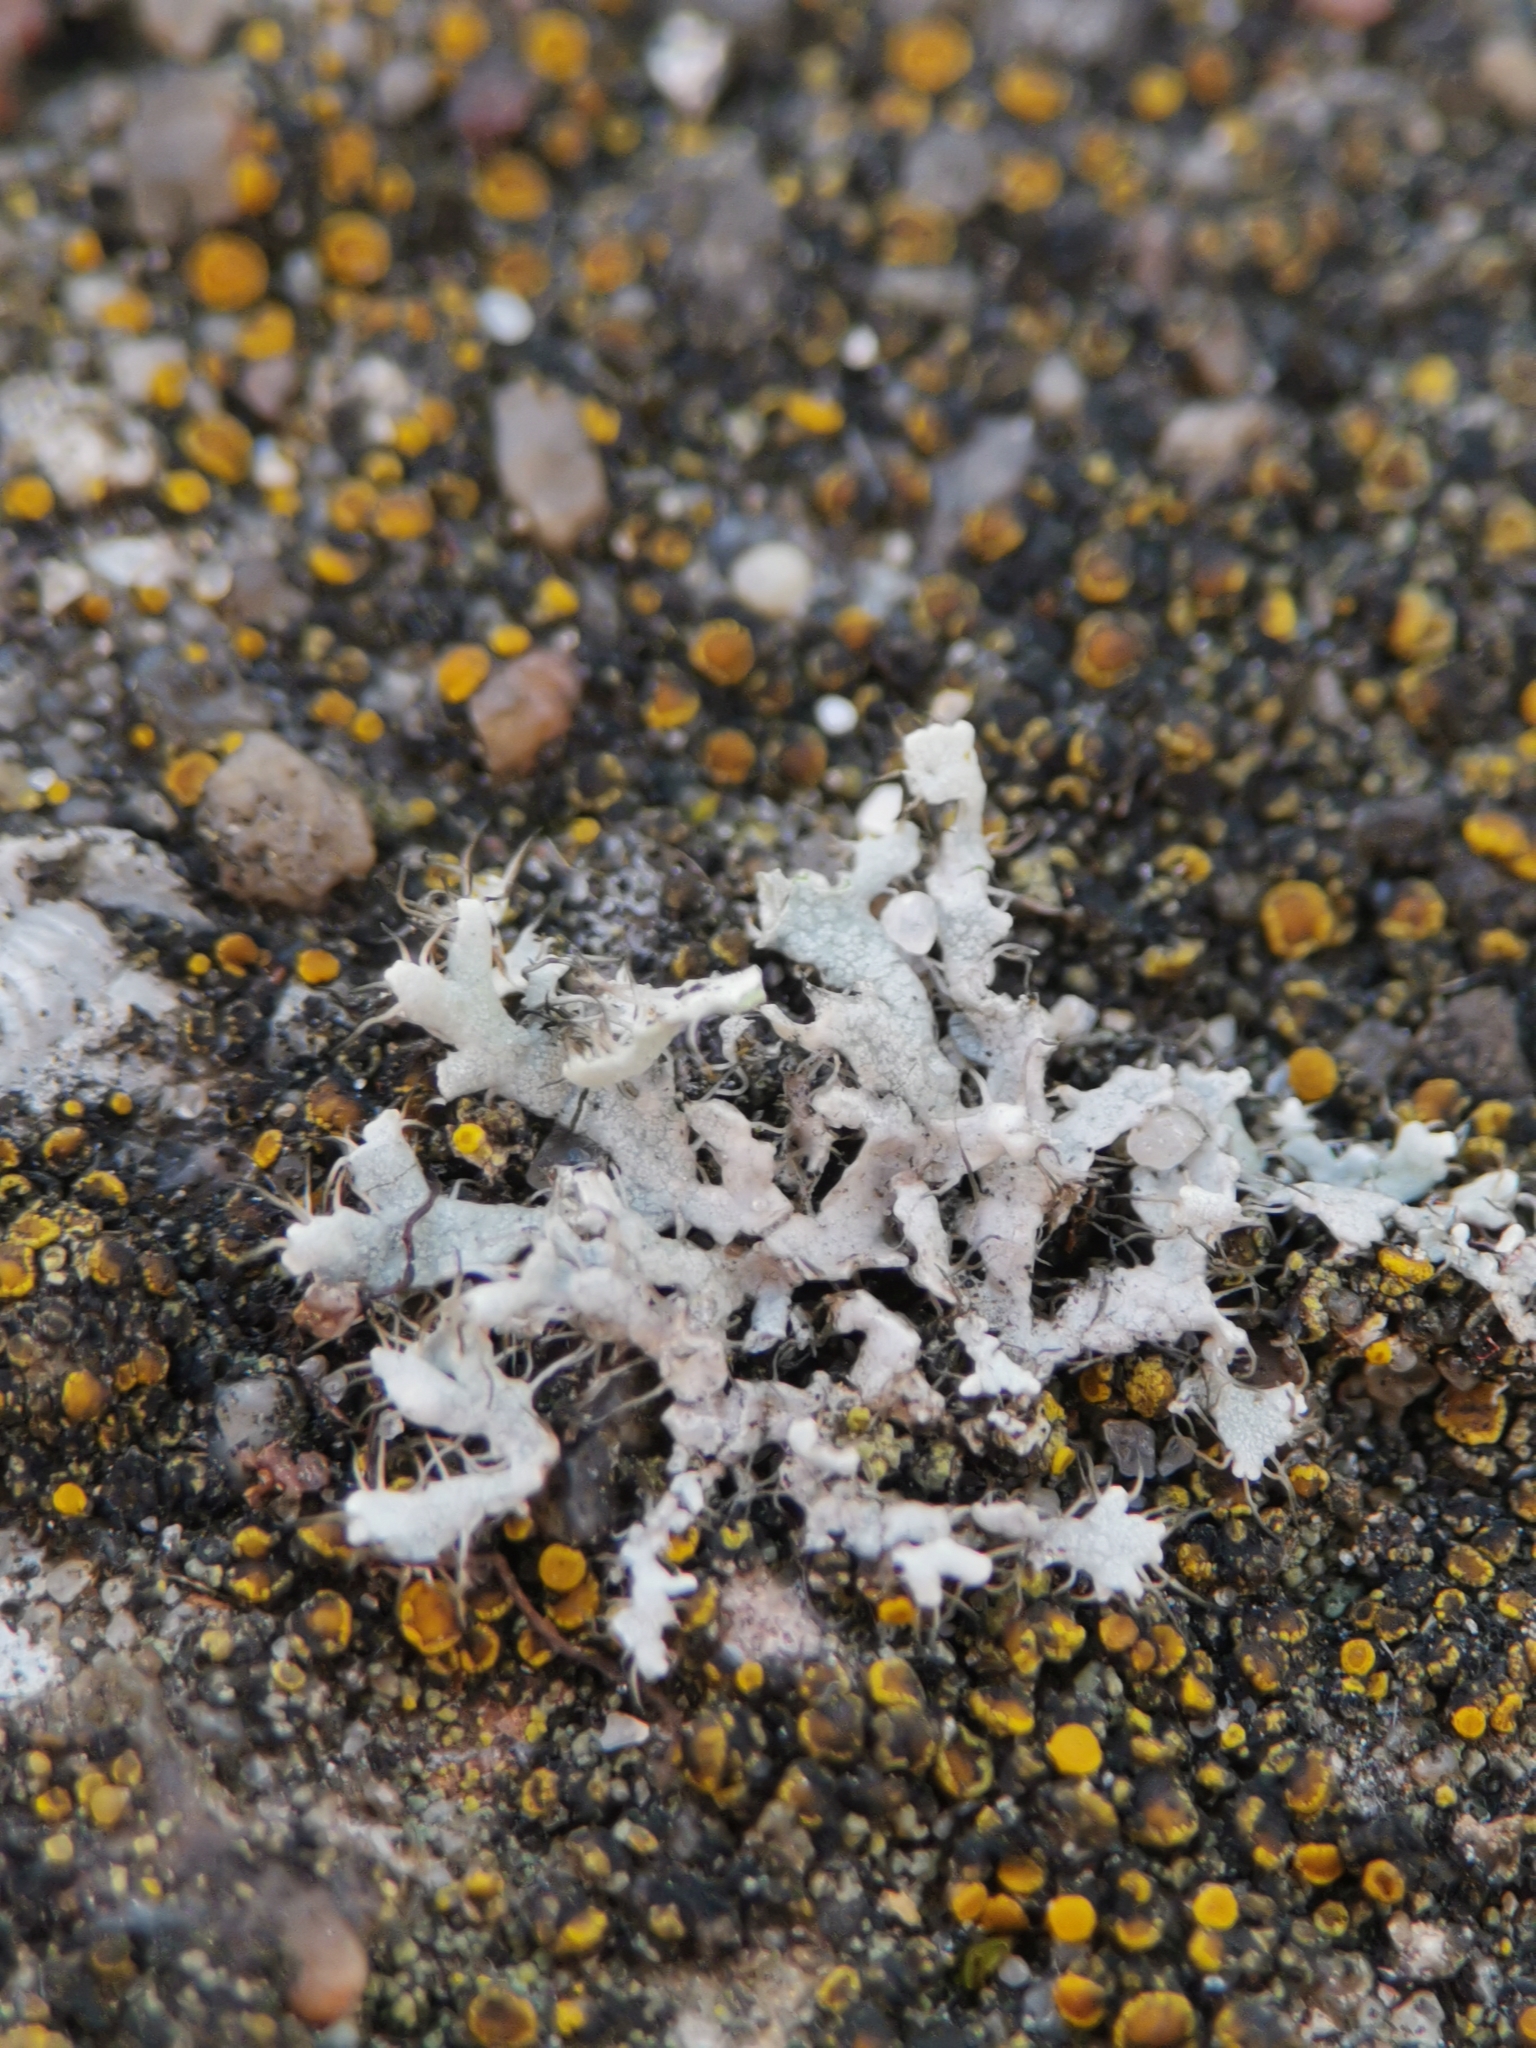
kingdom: Fungi
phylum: Ascomycota
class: Lecanoromycetes
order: Caliciales
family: Physciaceae
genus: Physcia
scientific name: Physcia adscendens
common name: Hooded rosette lichen
